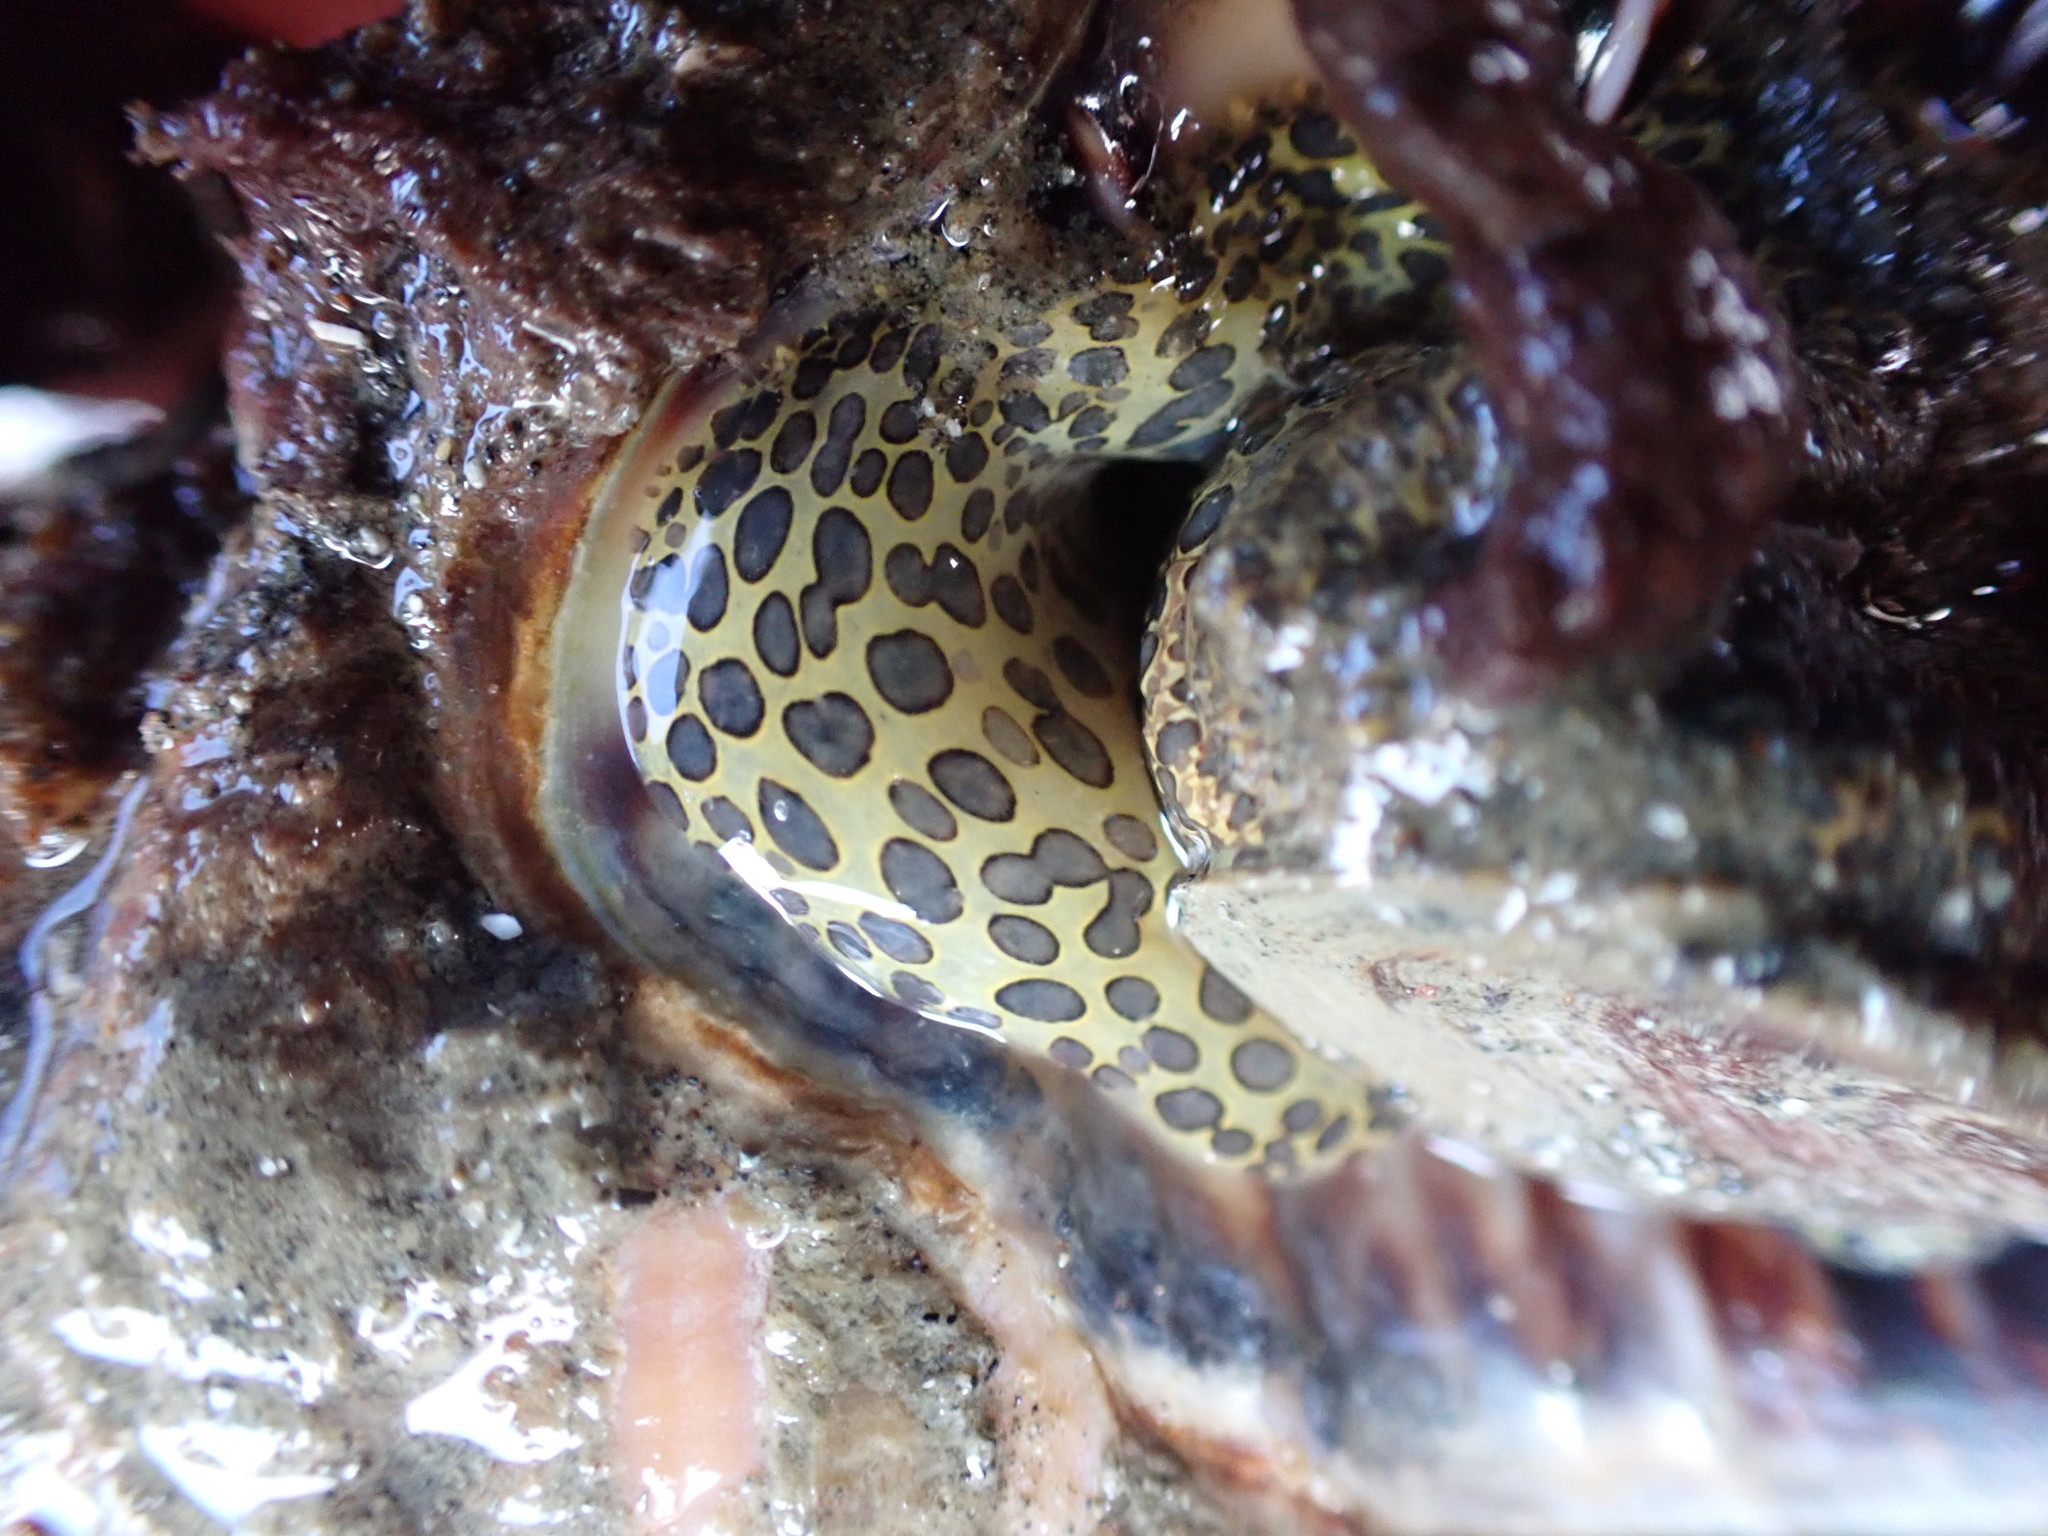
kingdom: Animalia
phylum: Mollusca
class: Gastropoda
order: Littorinimorpha
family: Cymatiidae
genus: Monoplex
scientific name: Monoplex parthenopeus
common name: Giant triton
